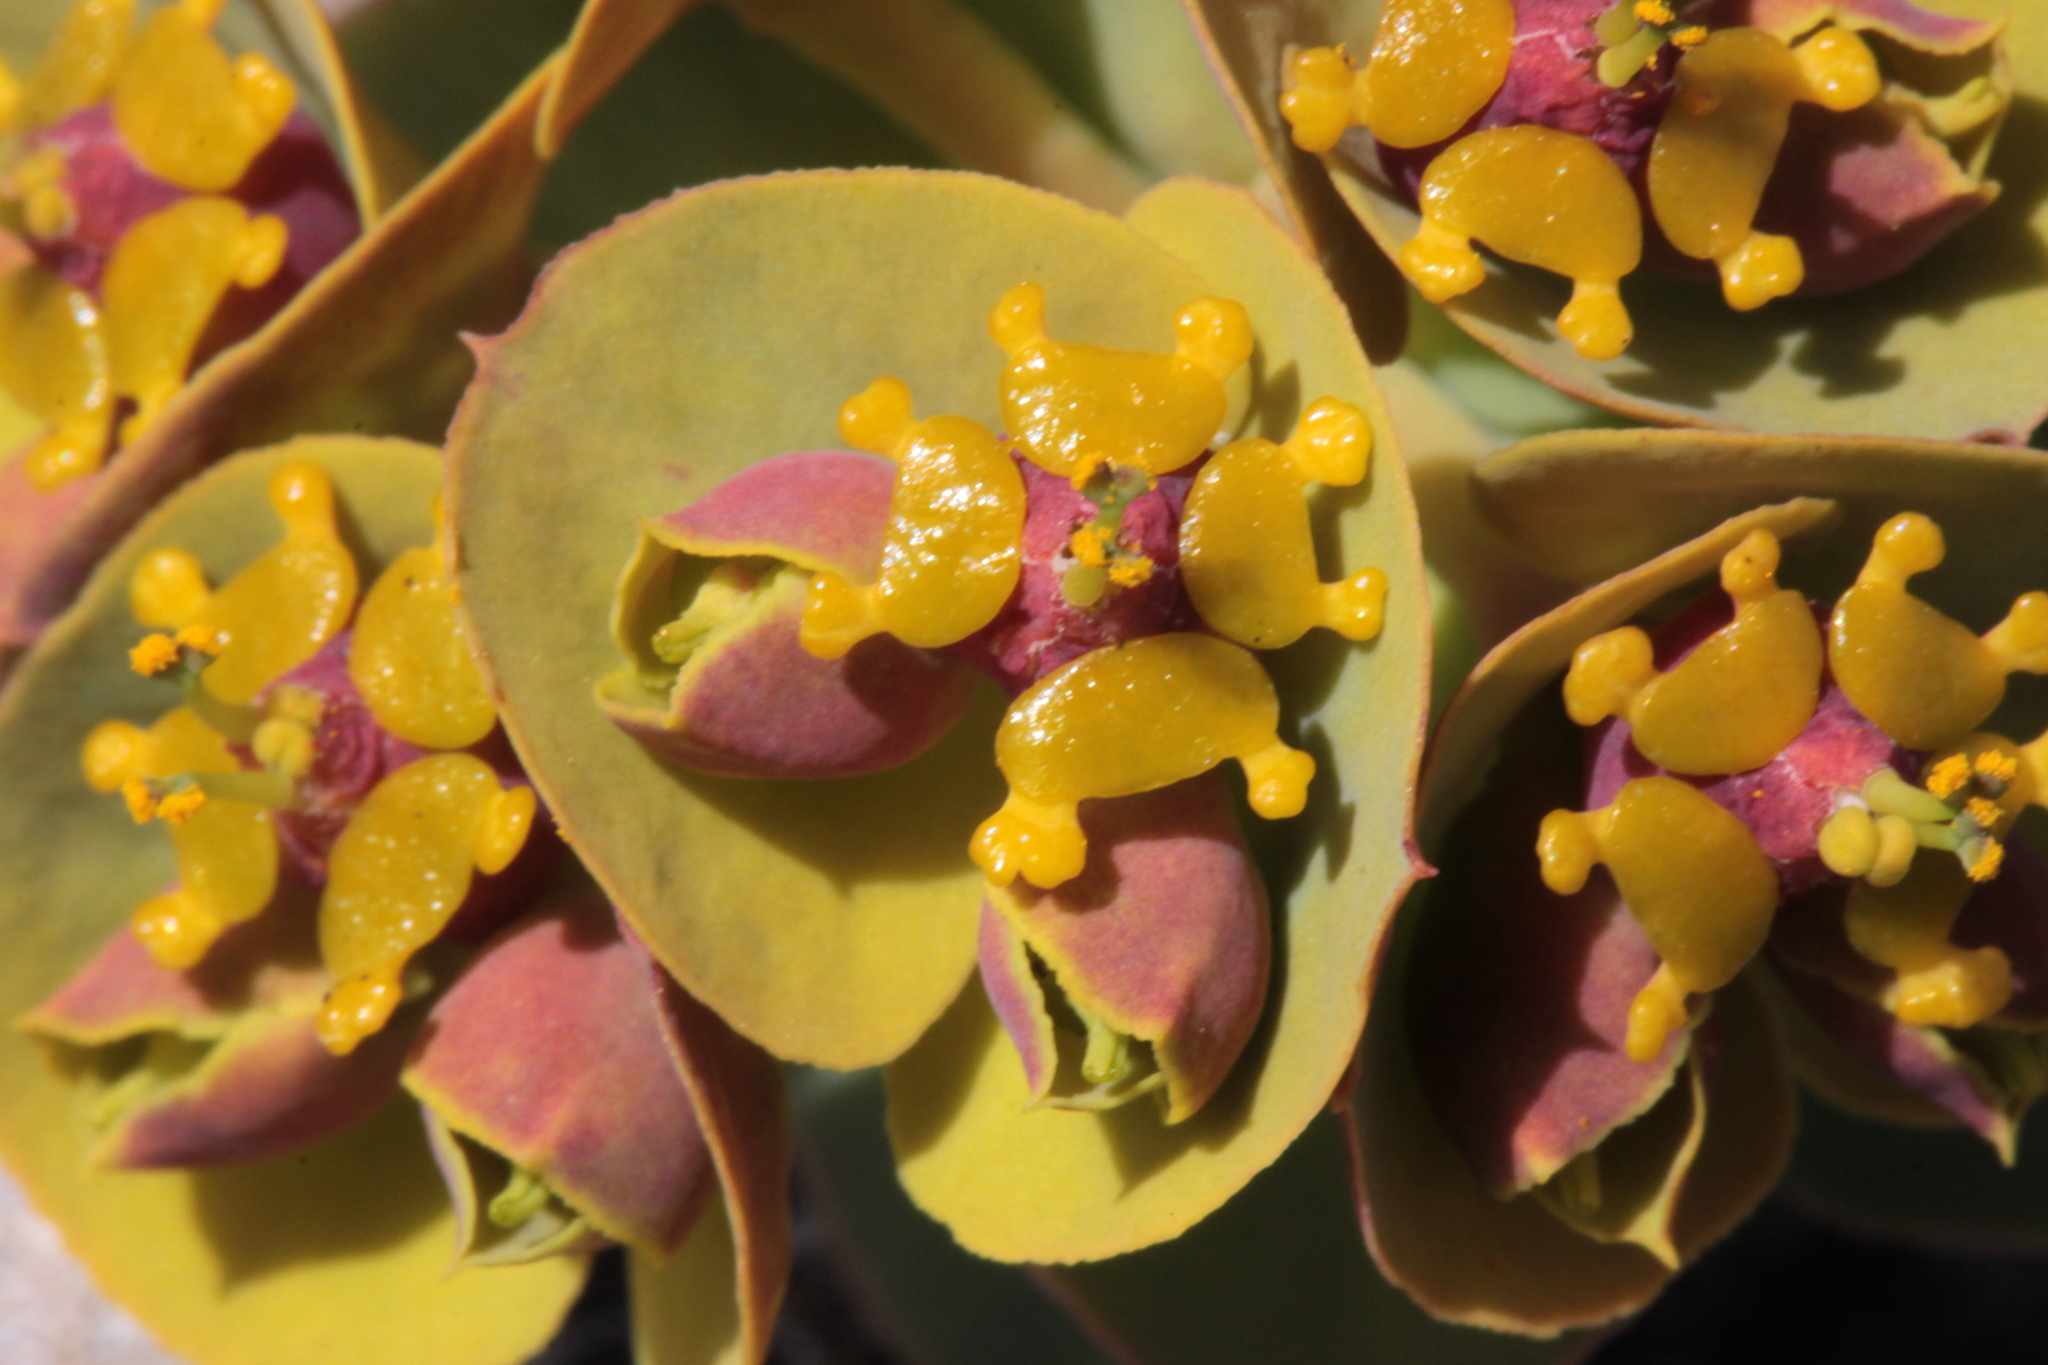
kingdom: Plantae
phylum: Tracheophyta
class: Magnoliopsida
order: Malpighiales
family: Euphorbiaceae
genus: Euphorbia
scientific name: Euphorbia myrsinites
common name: Myrtle spurge
